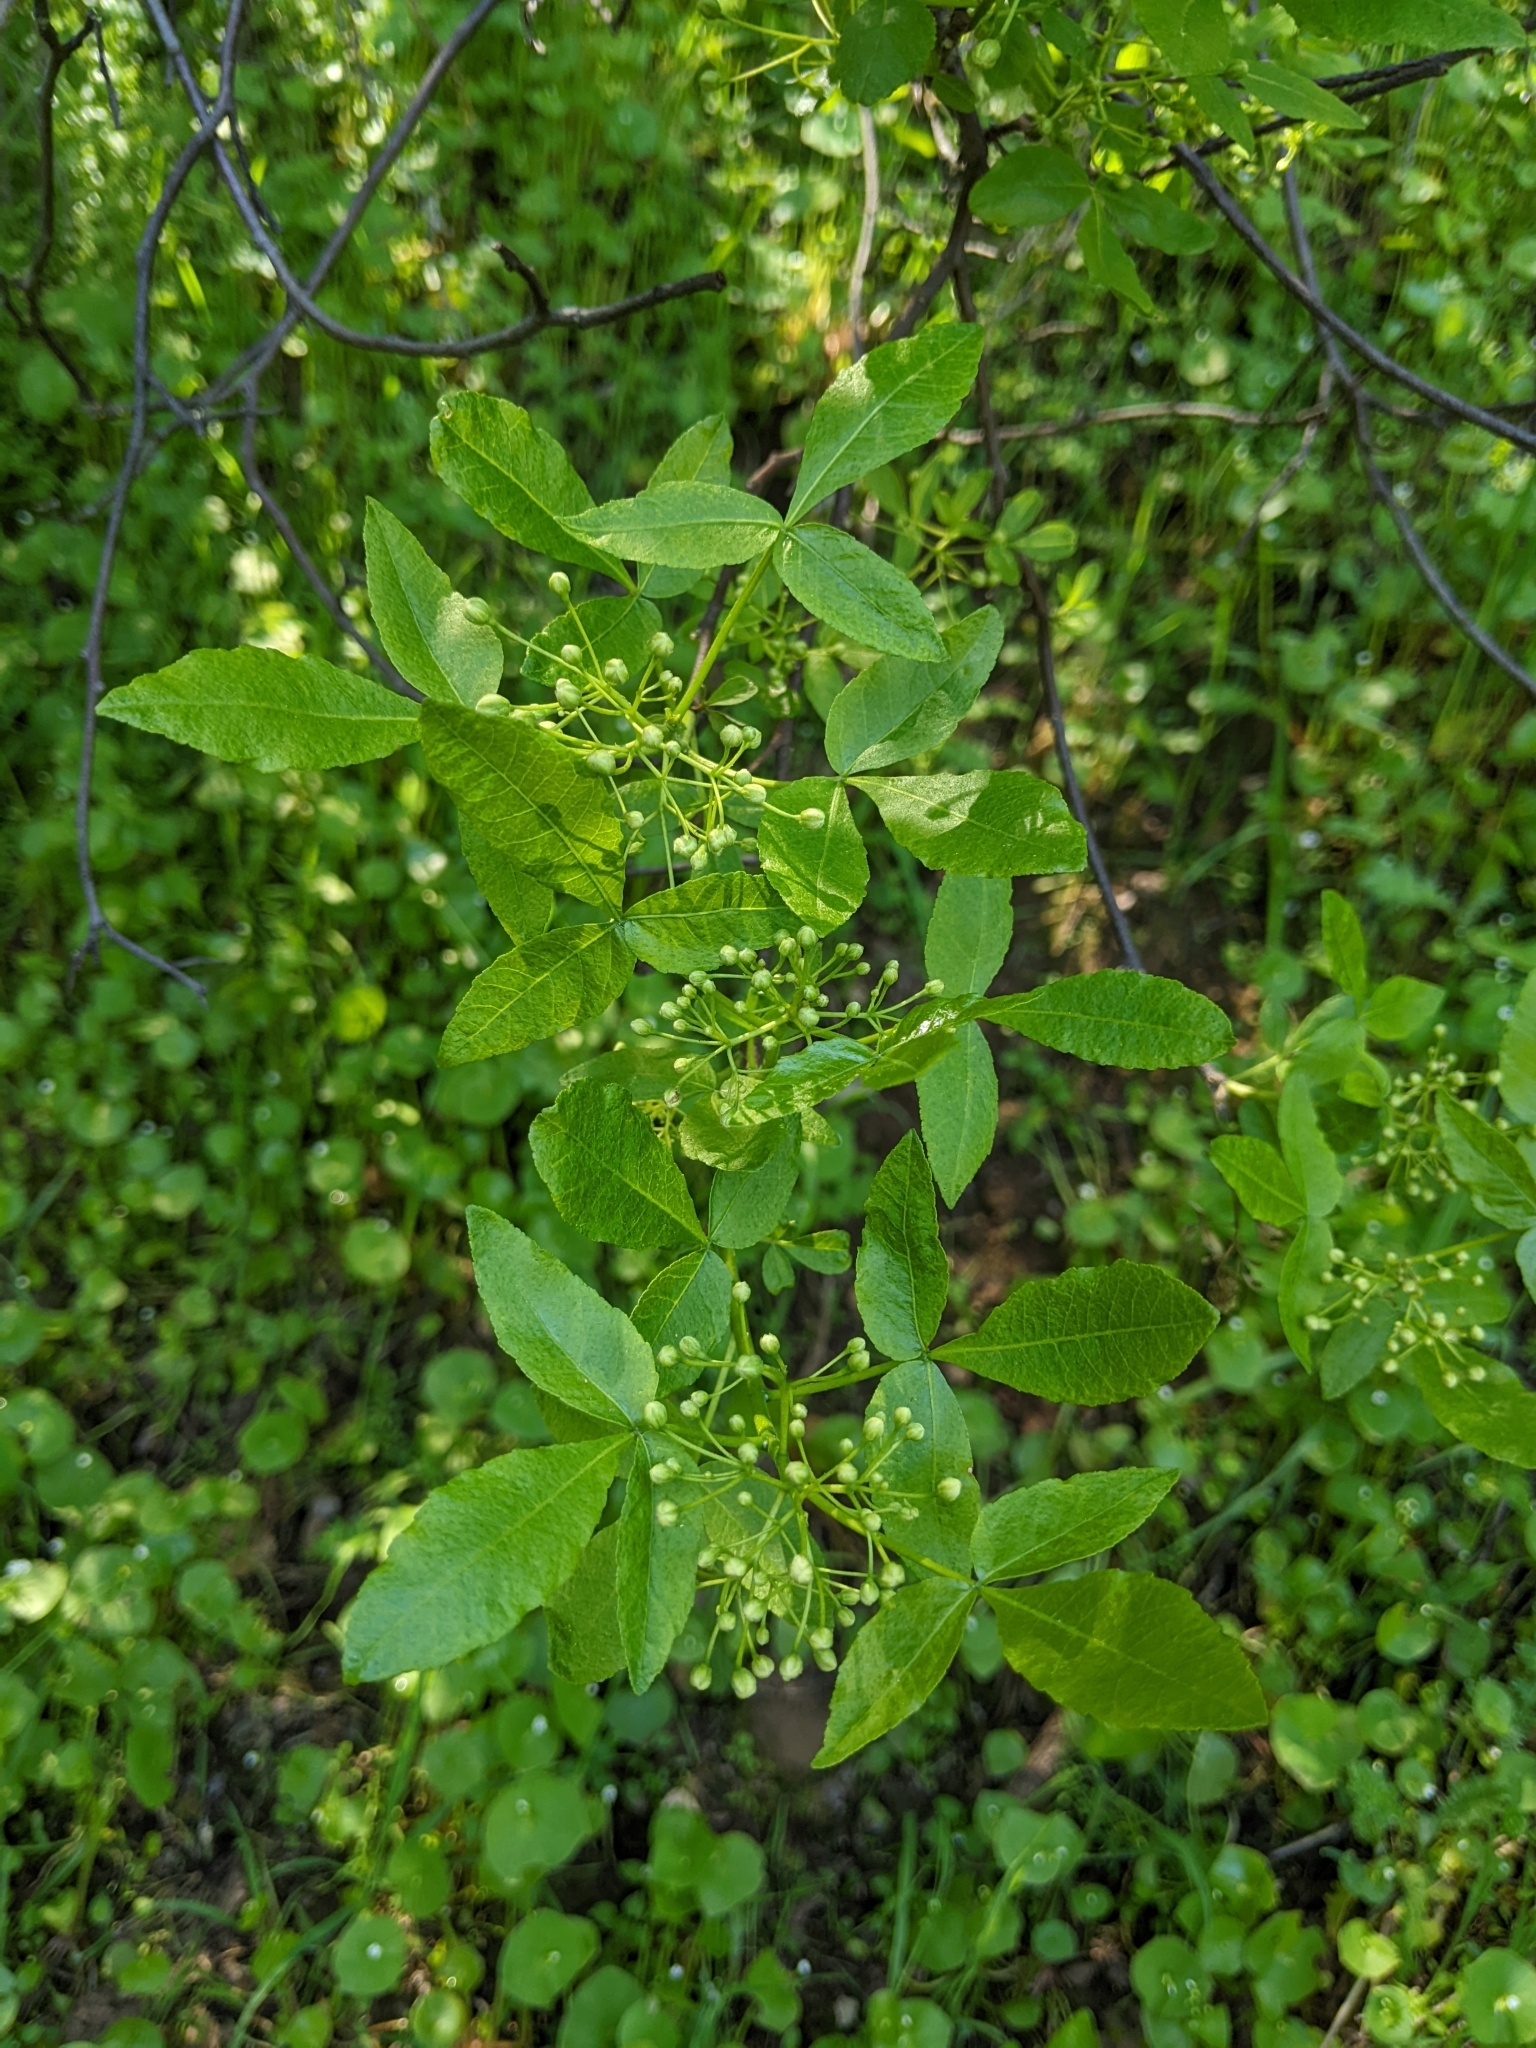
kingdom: Plantae
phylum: Tracheophyta
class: Magnoliopsida
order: Sapindales
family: Rutaceae
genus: Ptelea
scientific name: Ptelea crenulata
